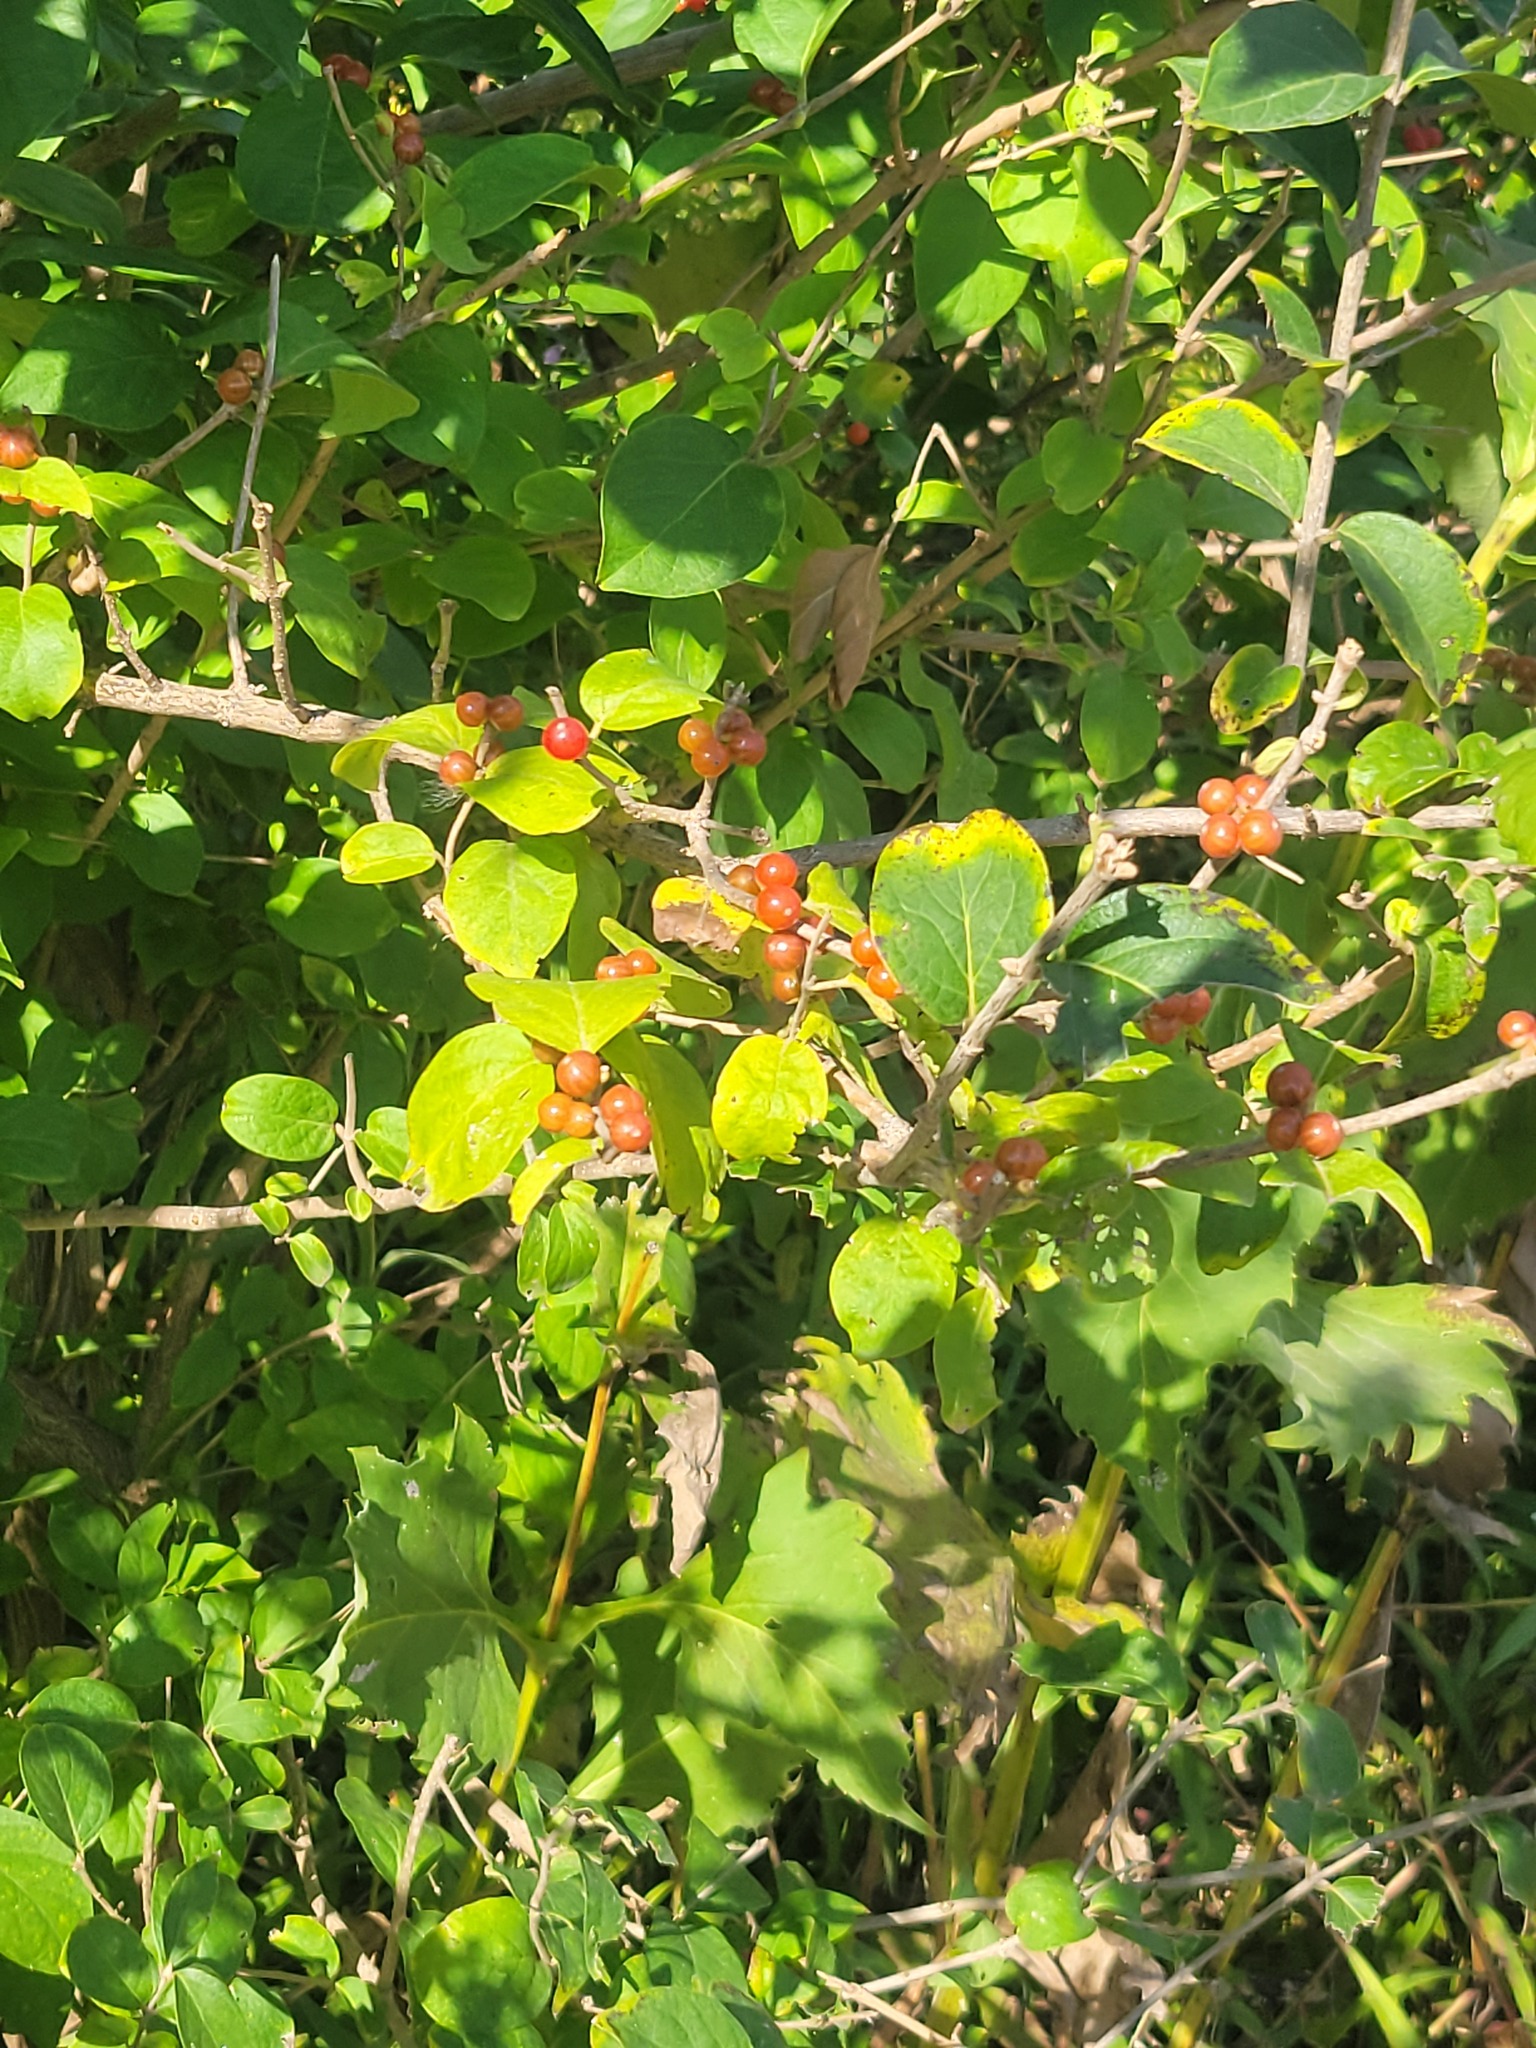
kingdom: Plantae
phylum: Tracheophyta
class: Magnoliopsida
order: Dipsacales
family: Caprifoliaceae
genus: Lonicera
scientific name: Lonicera maackii
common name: Amur honeysuckle
